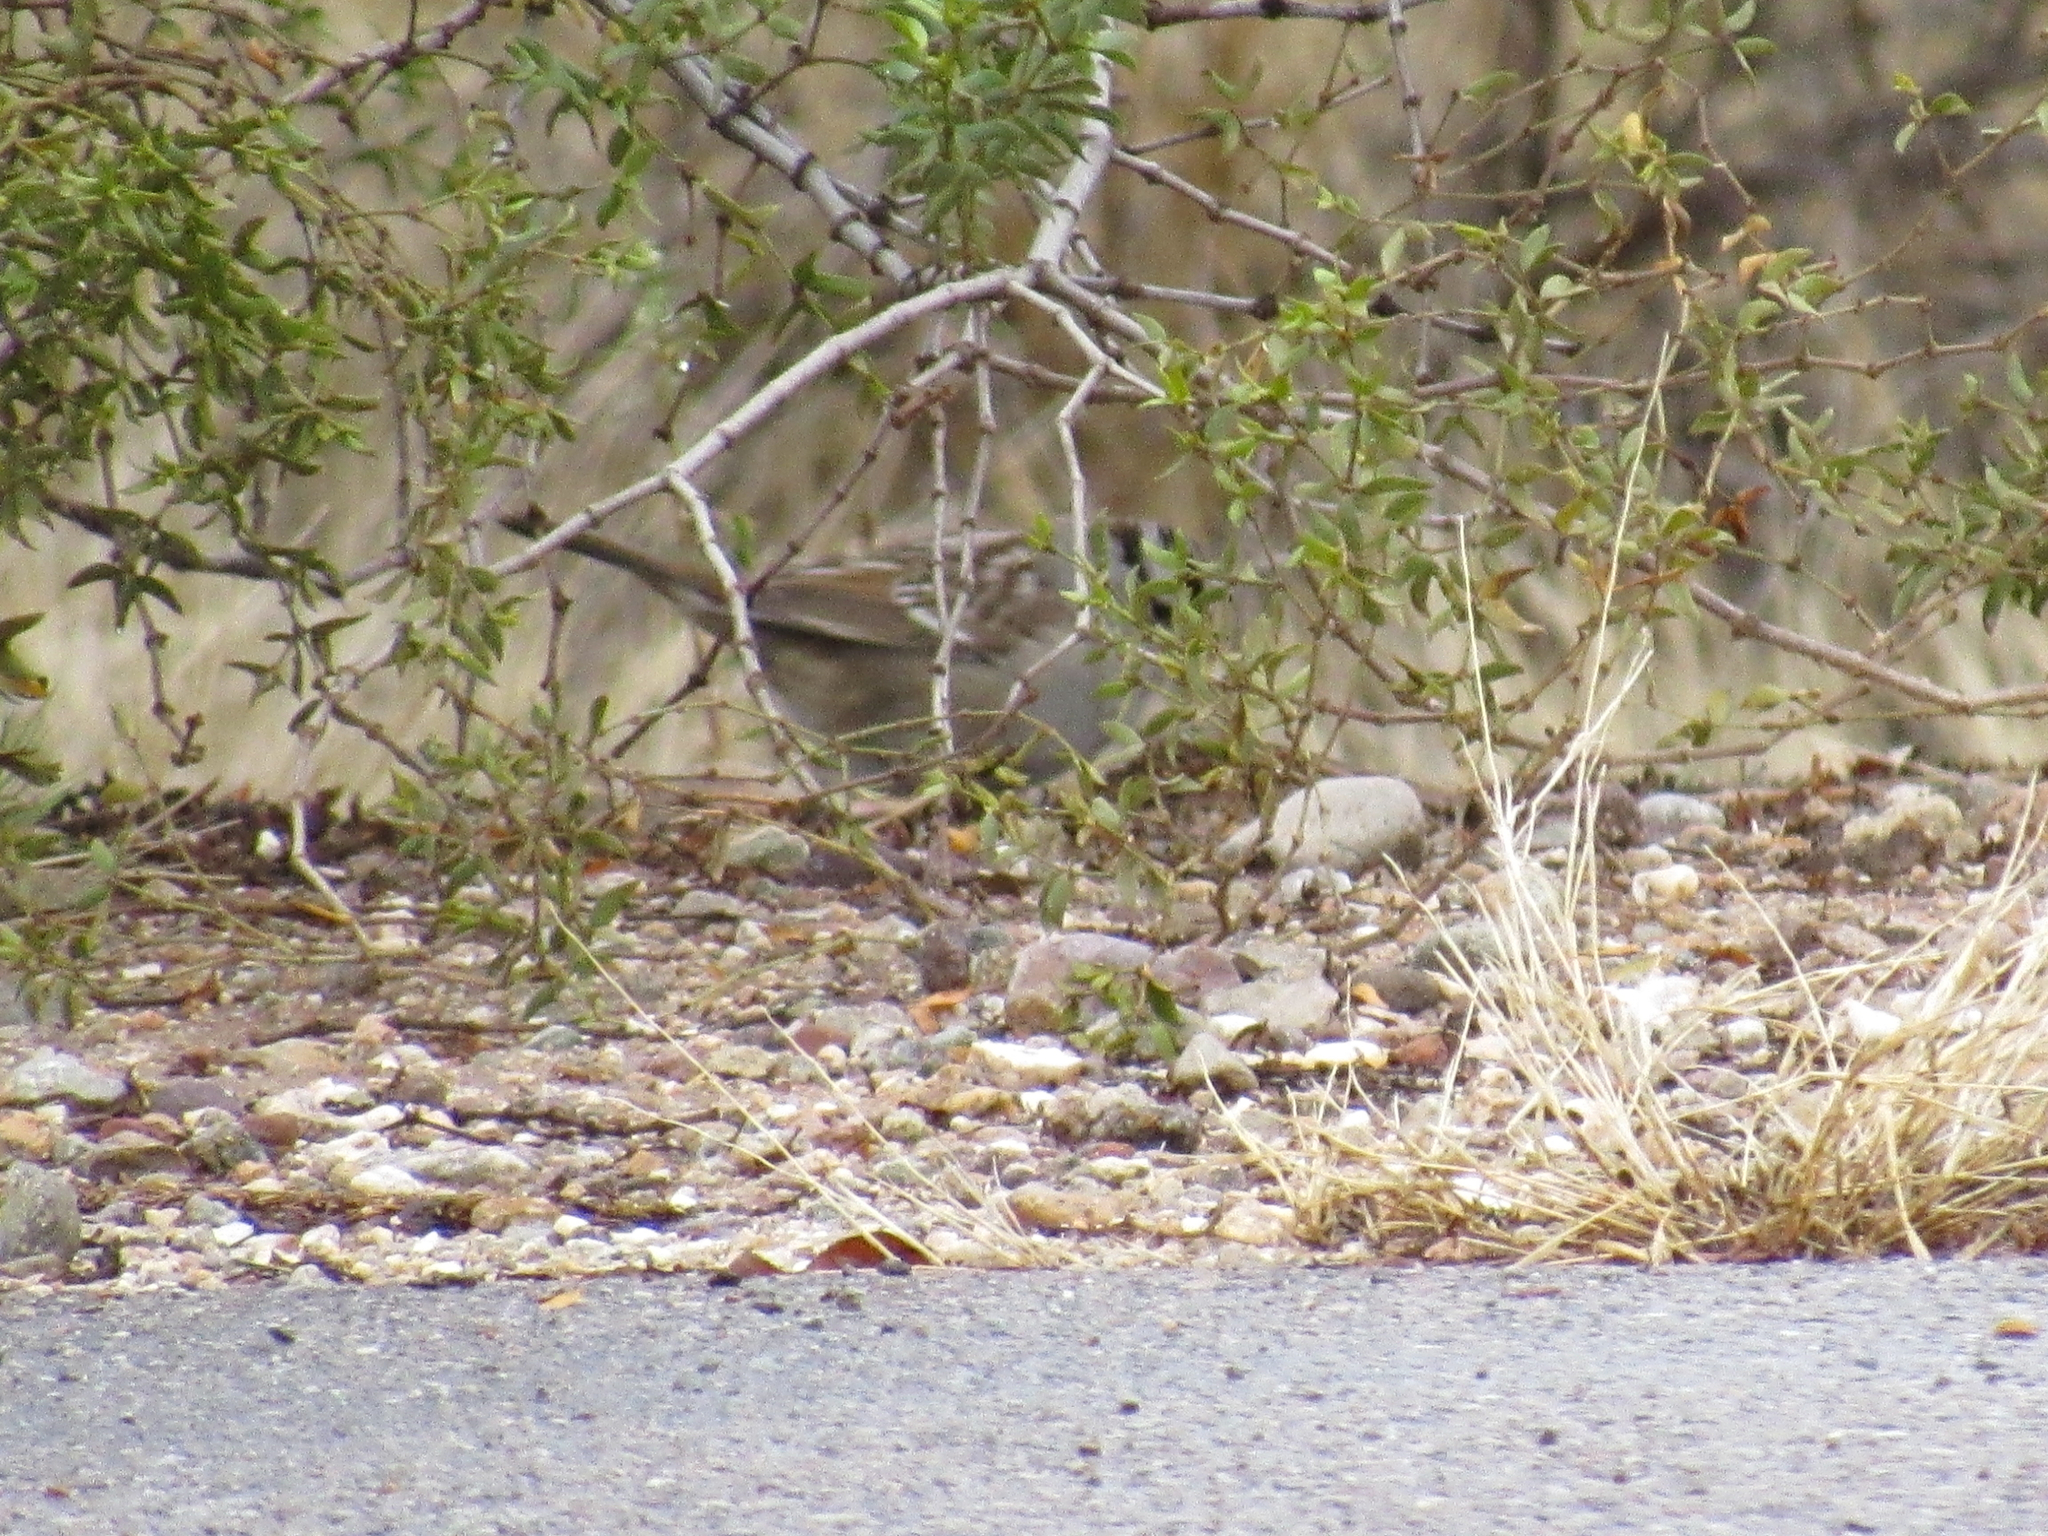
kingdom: Animalia
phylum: Chordata
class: Aves
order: Passeriformes
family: Passerellidae
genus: Zonotrichia
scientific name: Zonotrichia leucophrys
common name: White-crowned sparrow
